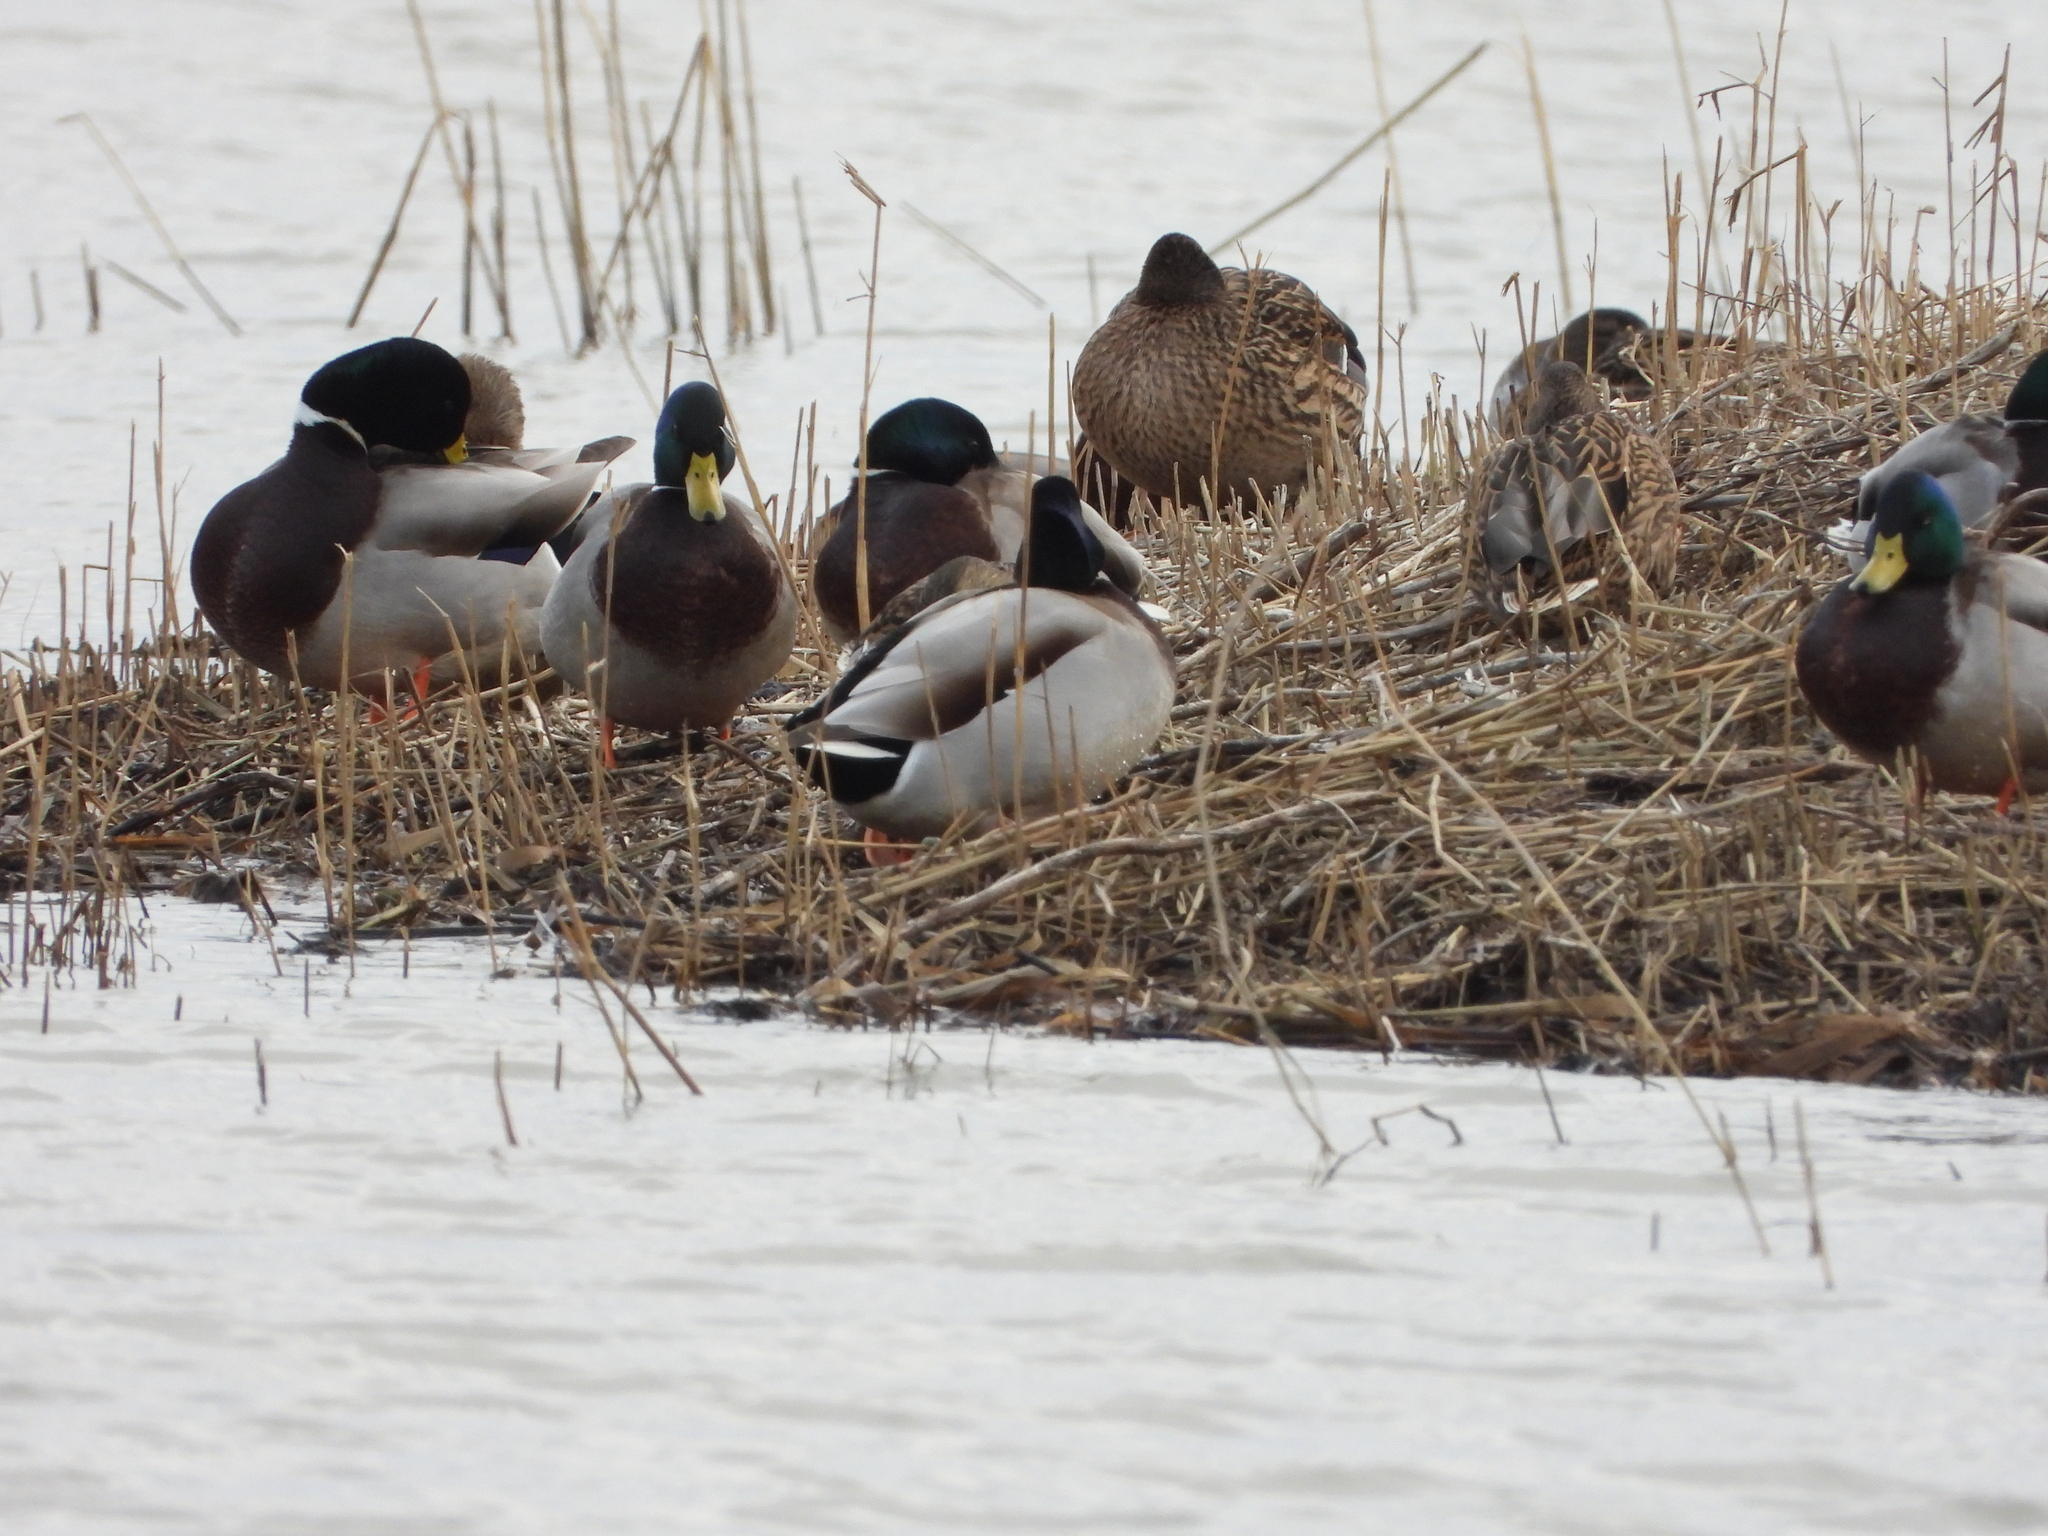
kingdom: Animalia
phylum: Chordata
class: Aves
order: Anseriformes
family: Anatidae
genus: Anas
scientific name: Anas platyrhynchos
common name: Mallard
